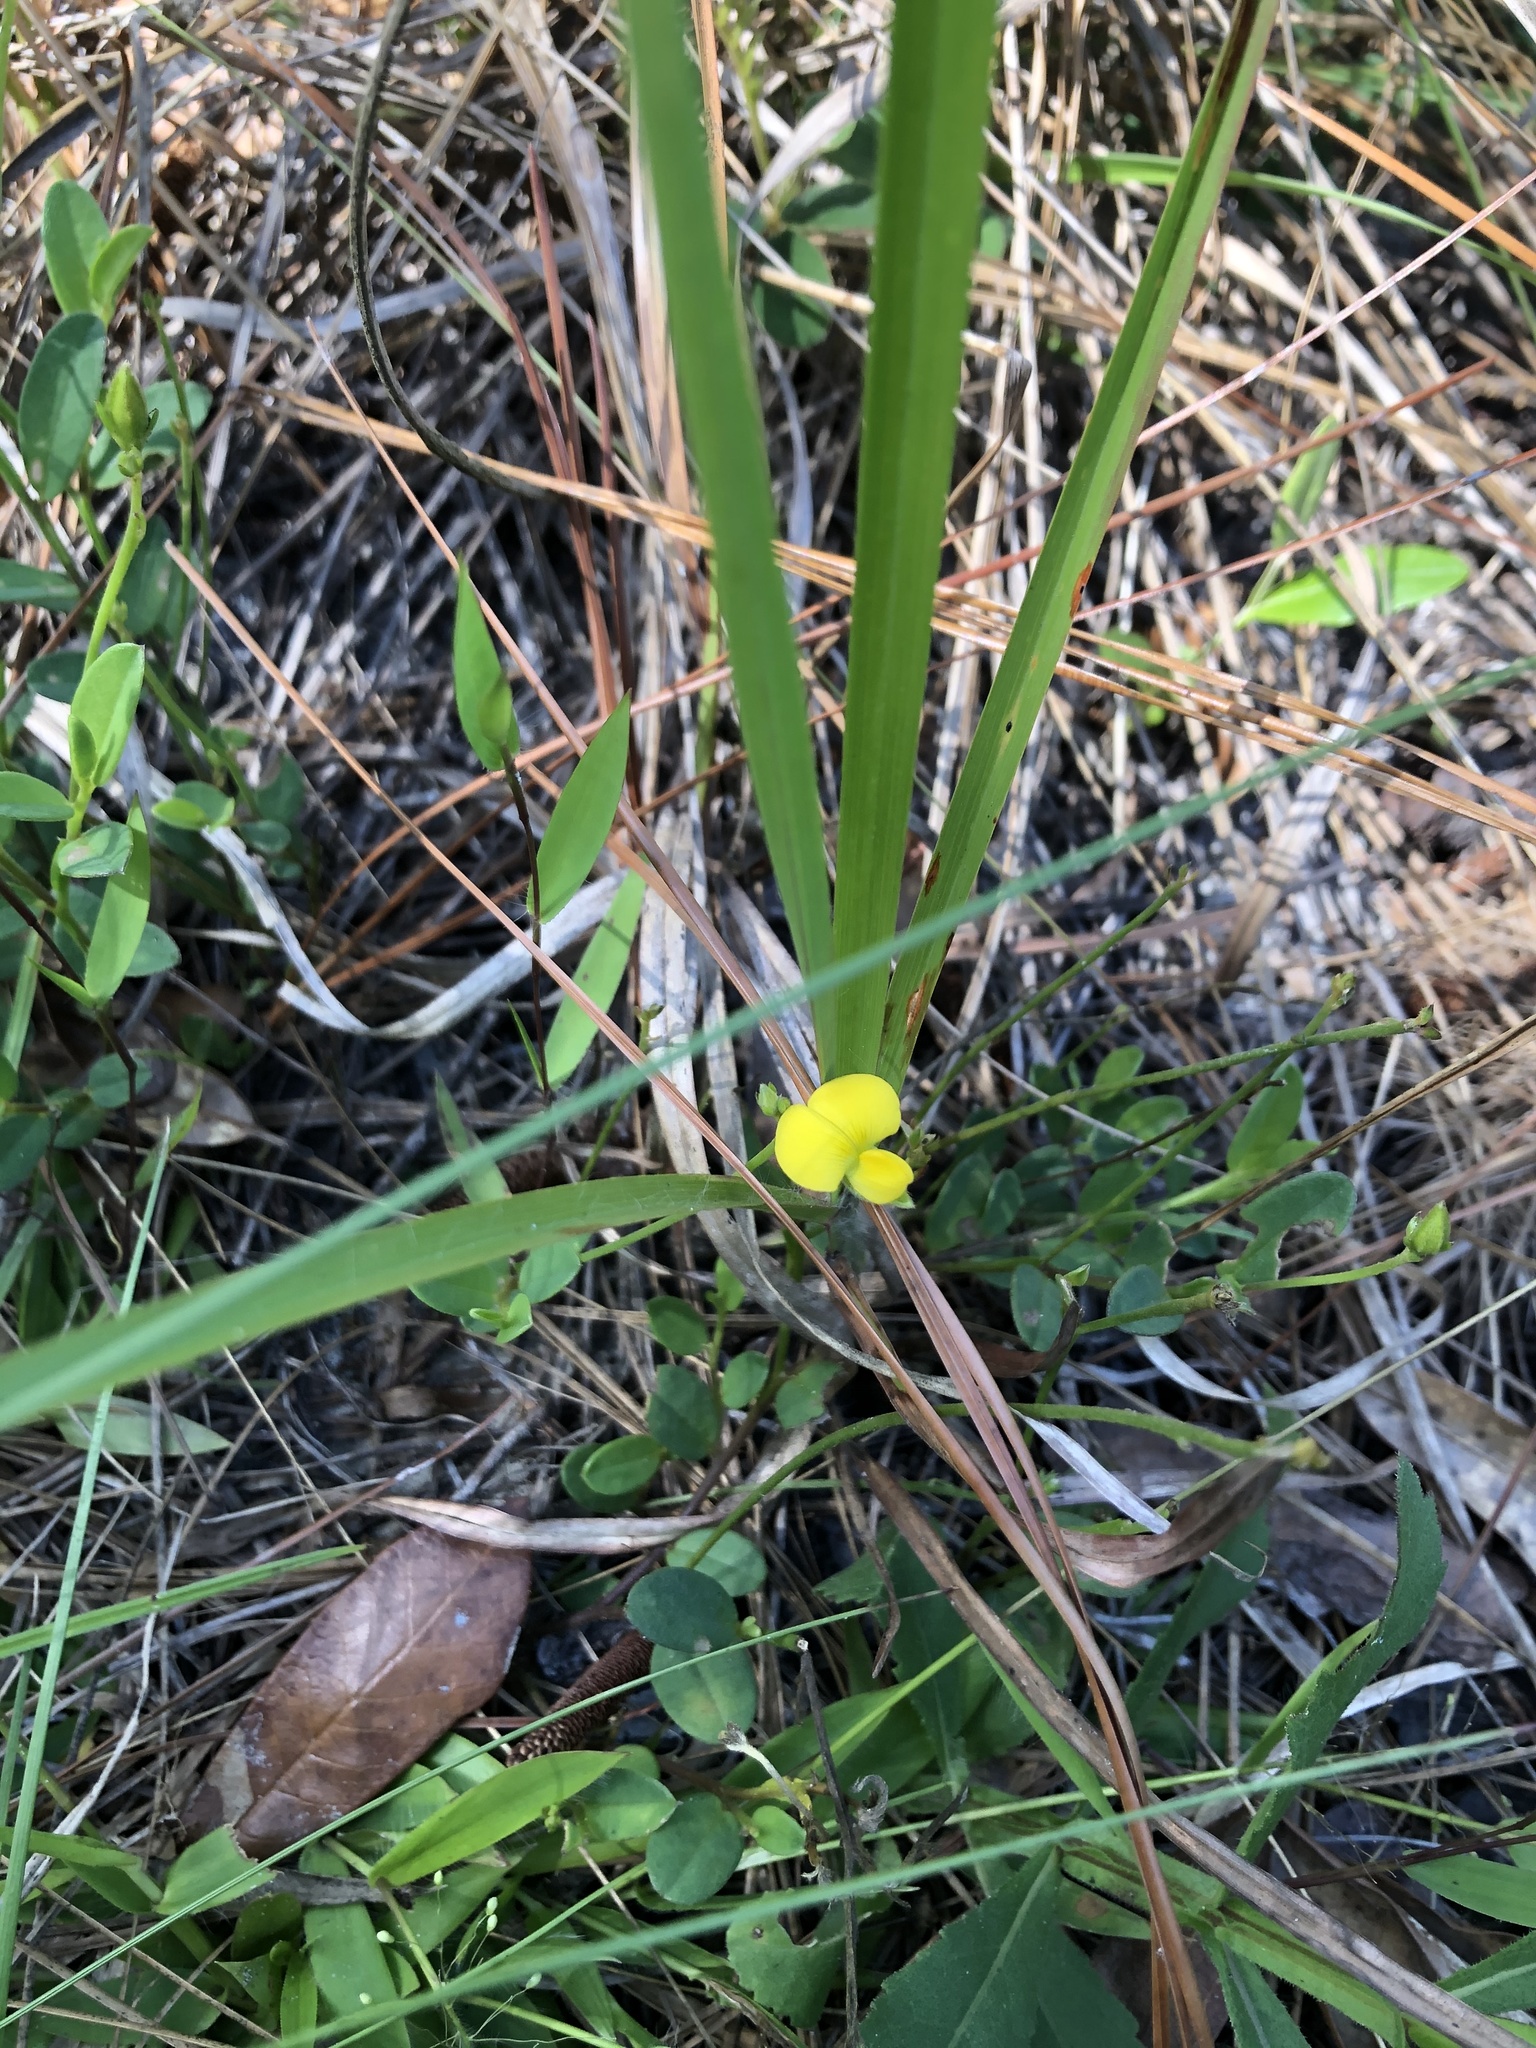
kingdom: Plantae
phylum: Tracheophyta
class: Magnoliopsida
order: Fabales
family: Fabaceae
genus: Crotalaria
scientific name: Crotalaria rotundifolia
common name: Prostrate rattlebox
